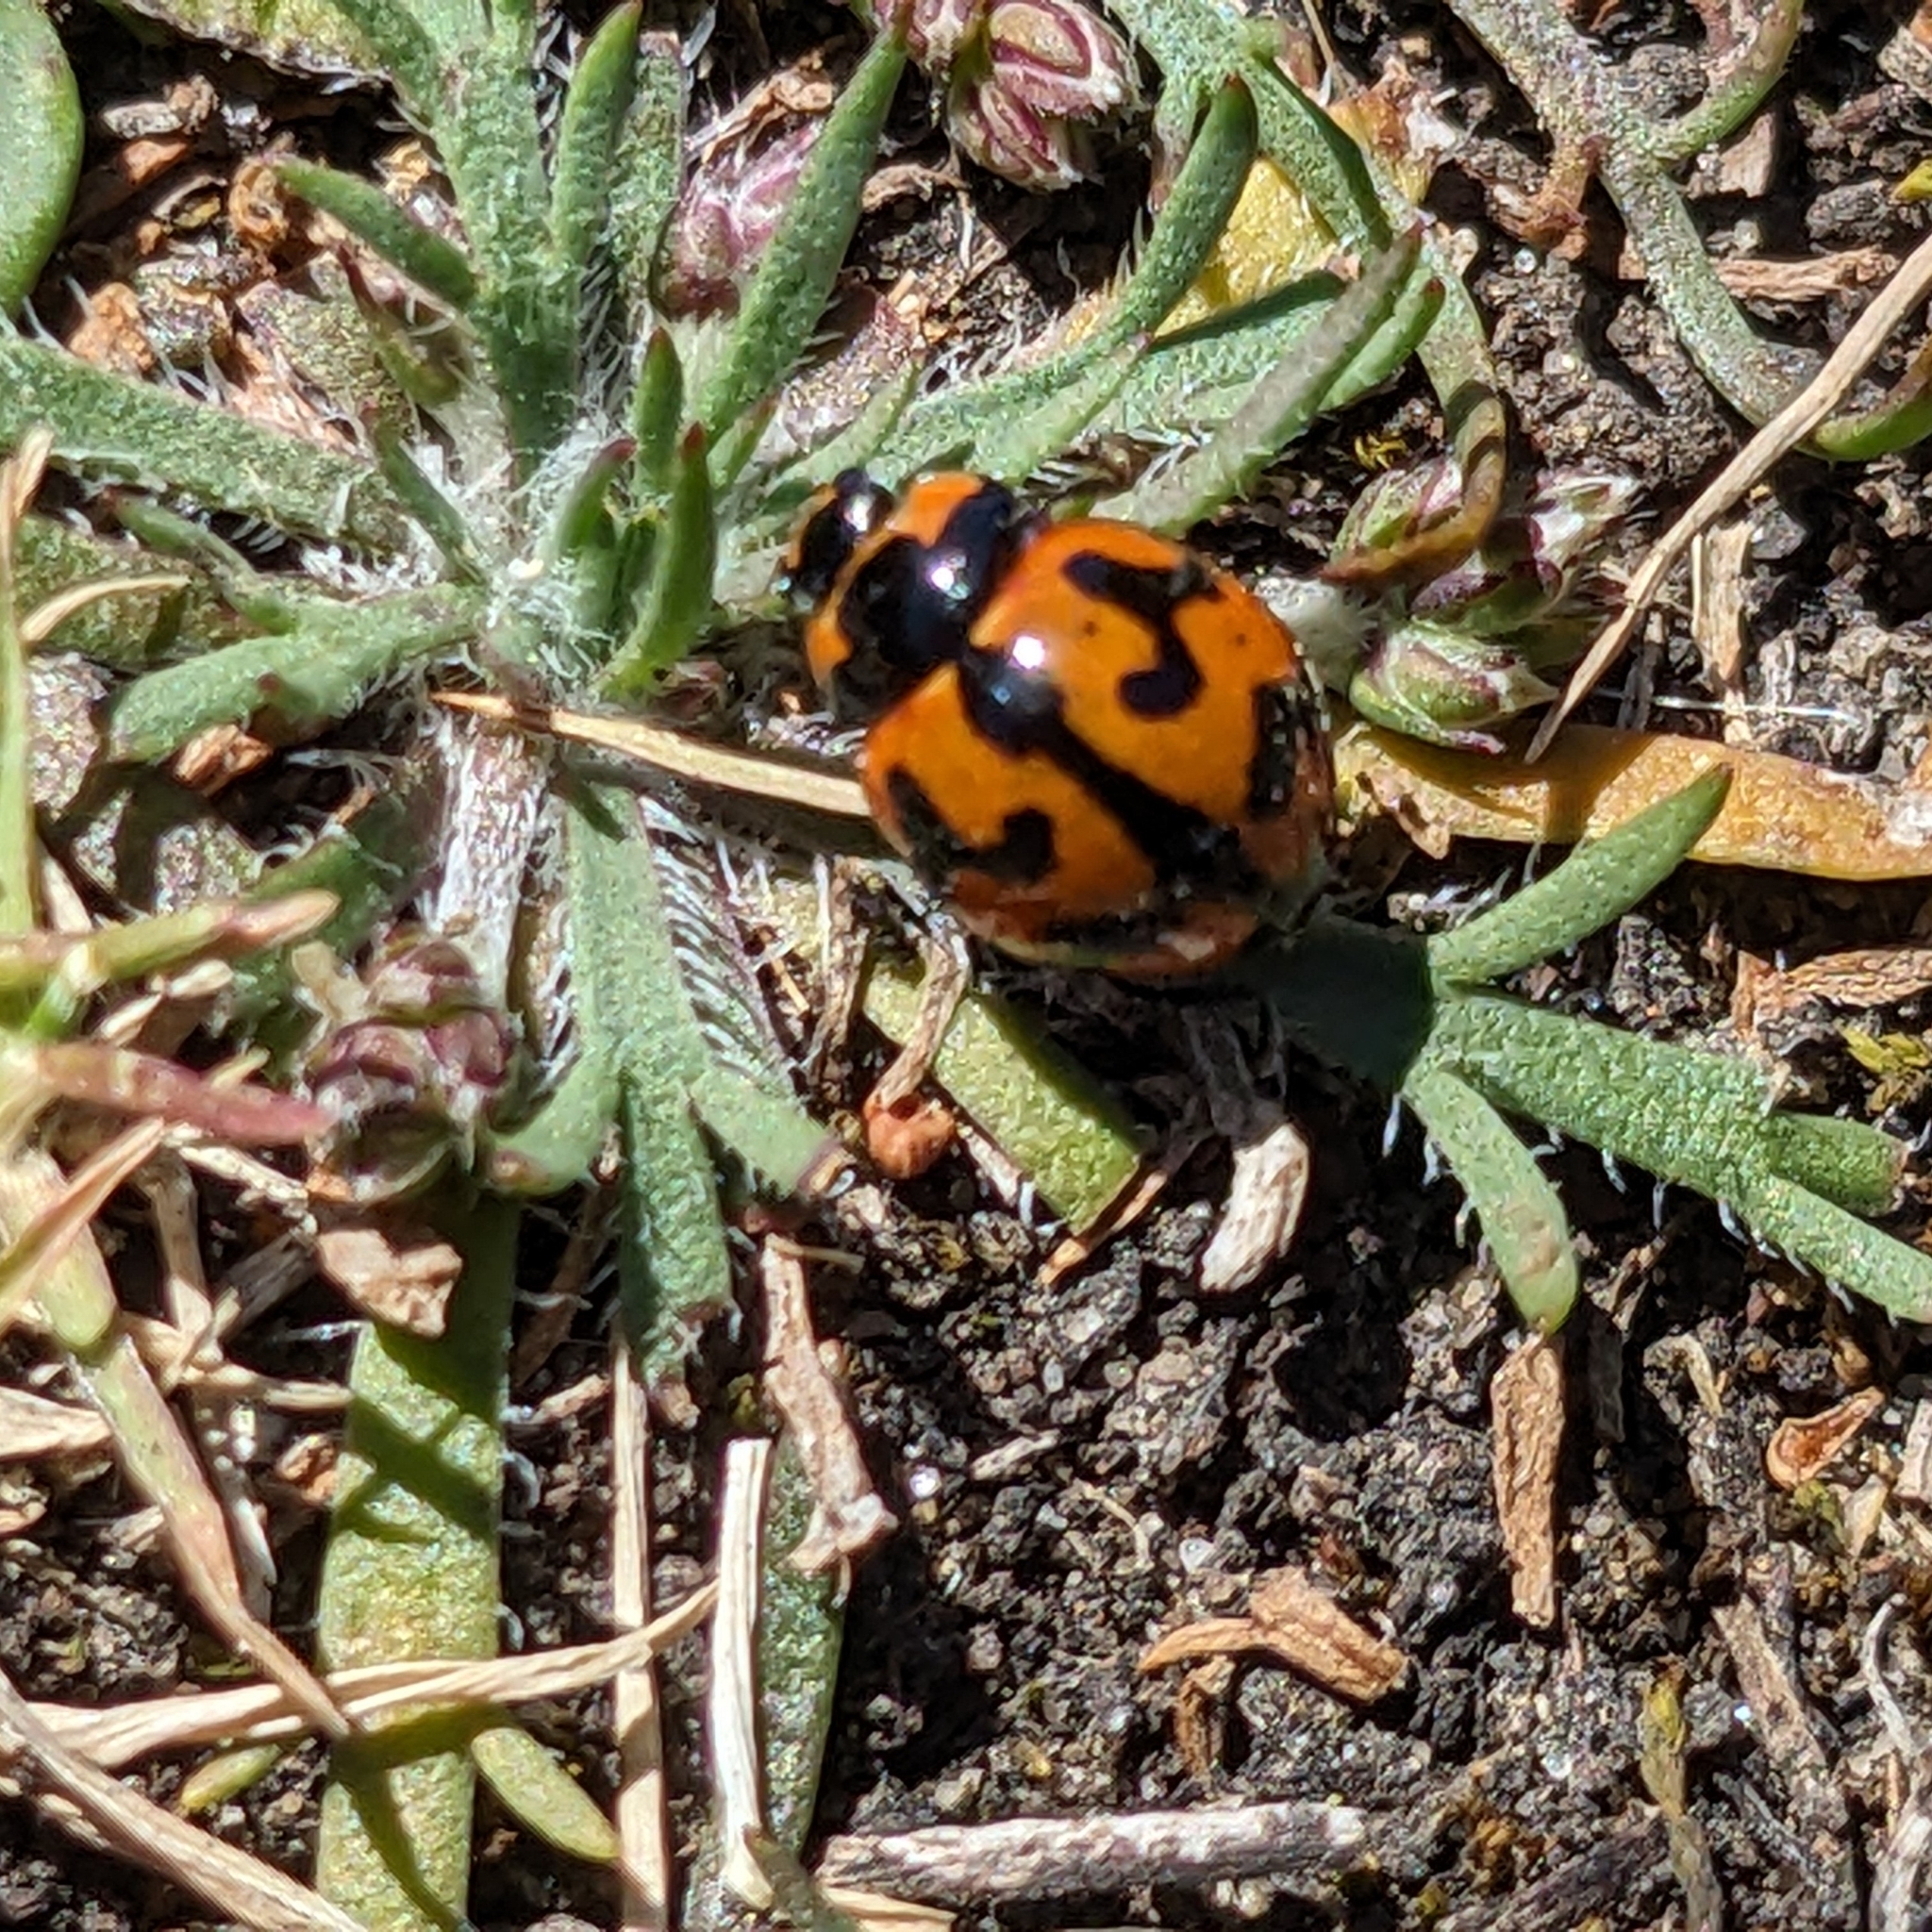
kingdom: Animalia
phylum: Arthropoda
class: Insecta
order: Coleoptera
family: Coccinellidae
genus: Coccinella
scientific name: Coccinella transversalis
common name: Transverse lady beetle
